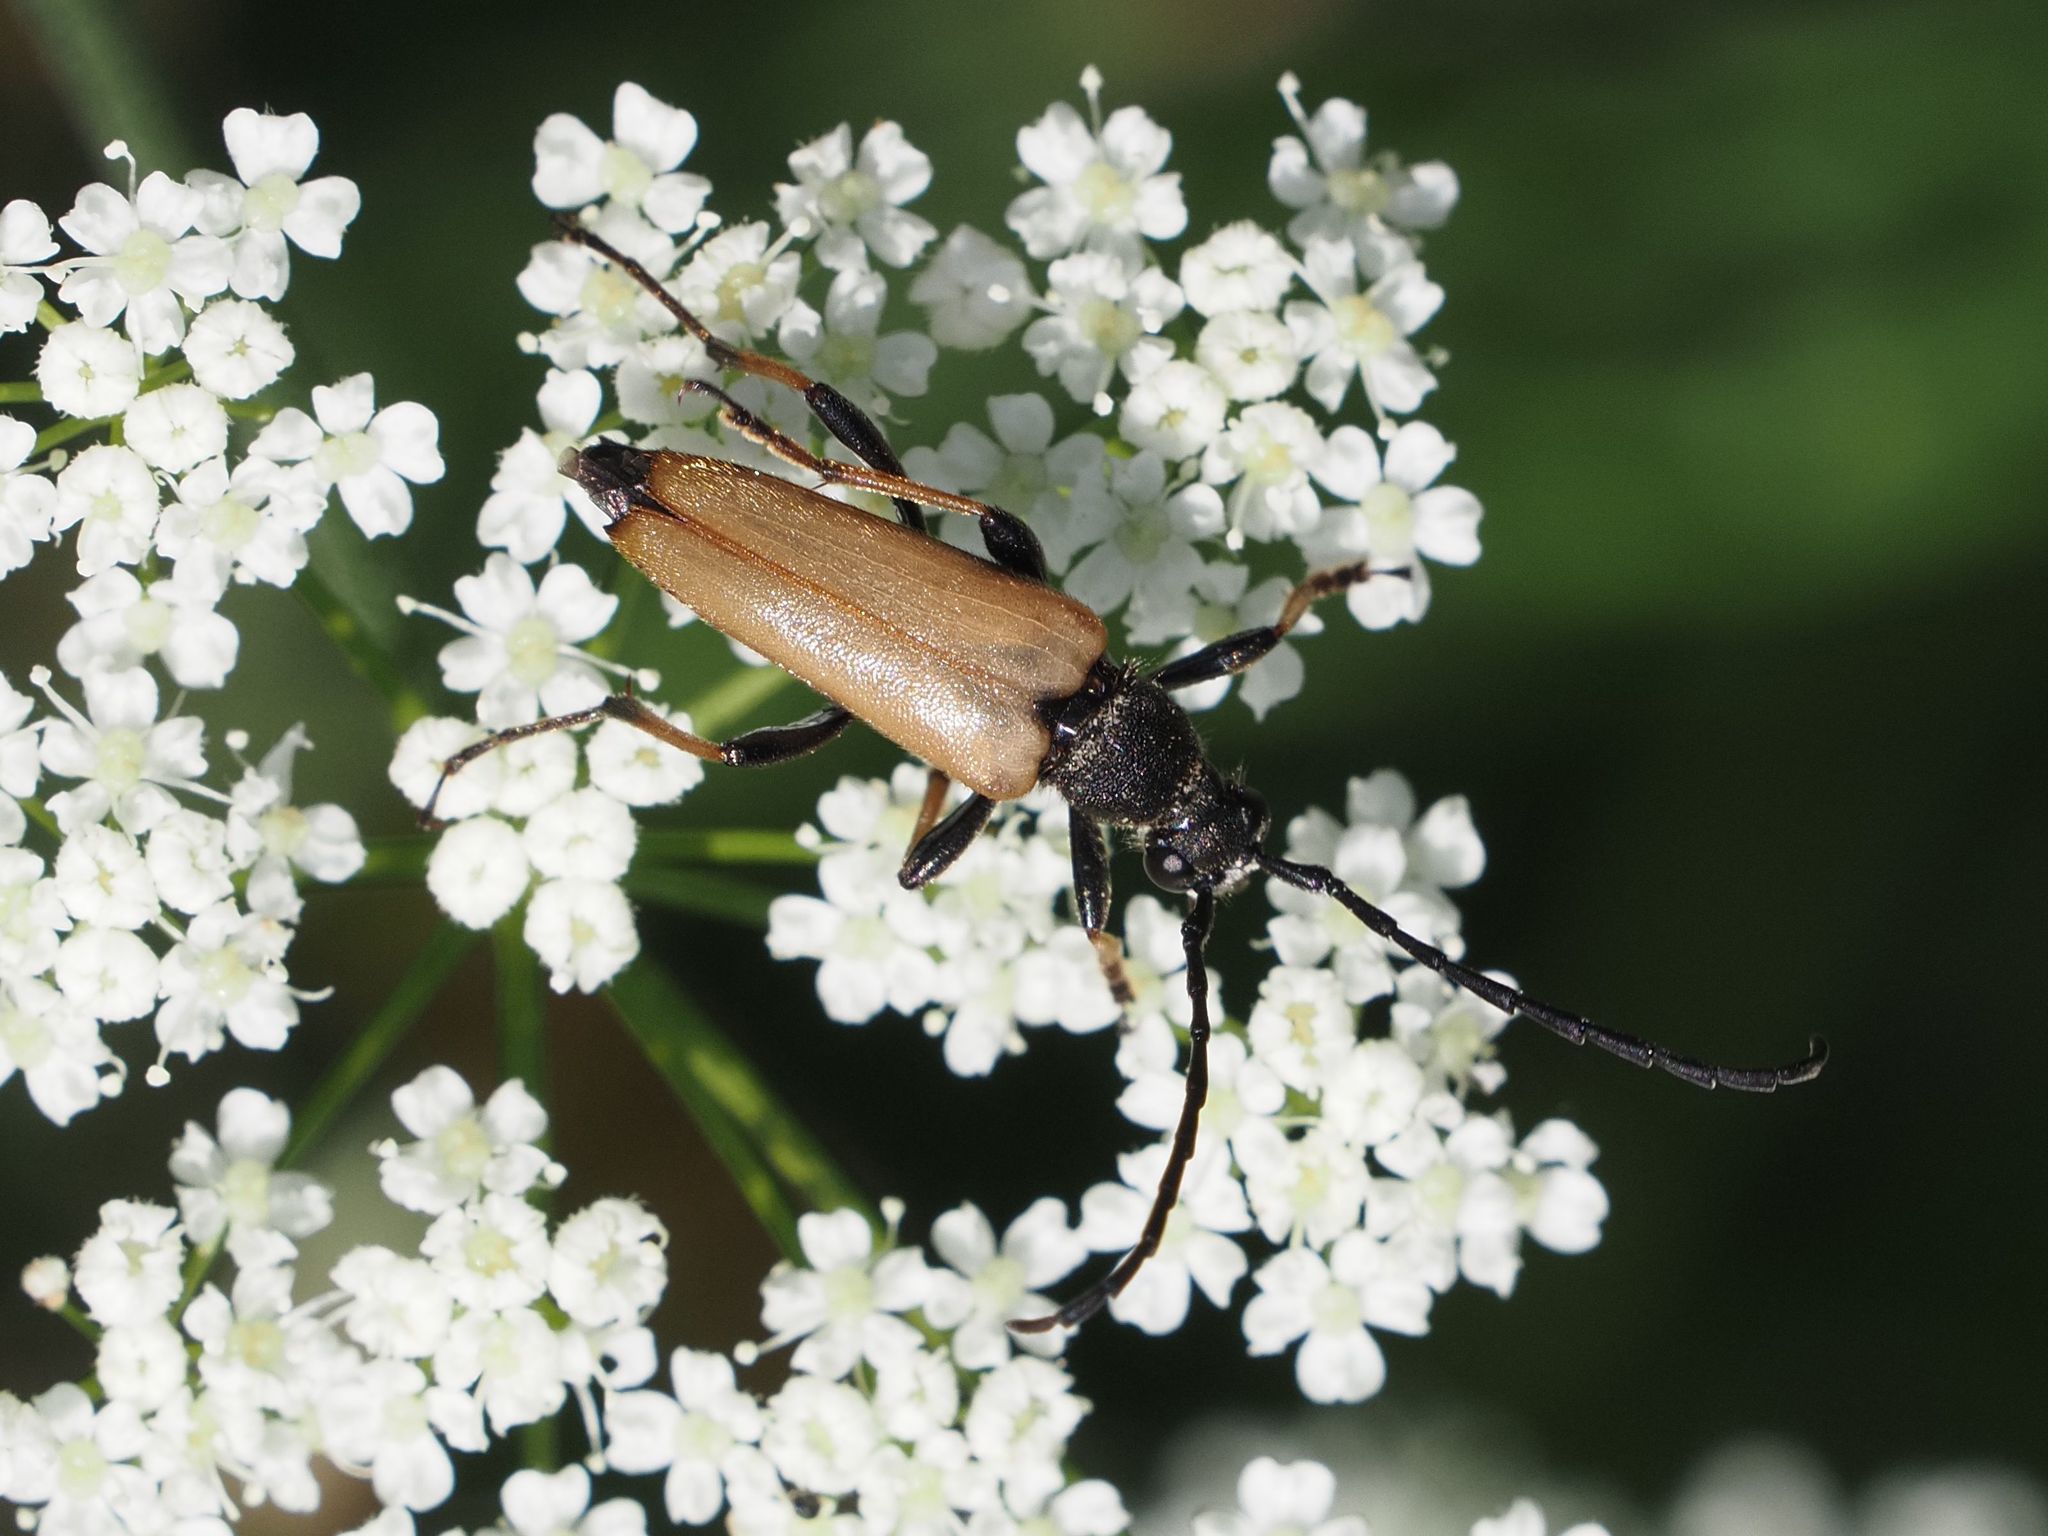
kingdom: Animalia
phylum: Arthropoda
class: Insecta
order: Coleoptera
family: Cerambycidae
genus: Stictoleptura
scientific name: Stictoleptura rubra
